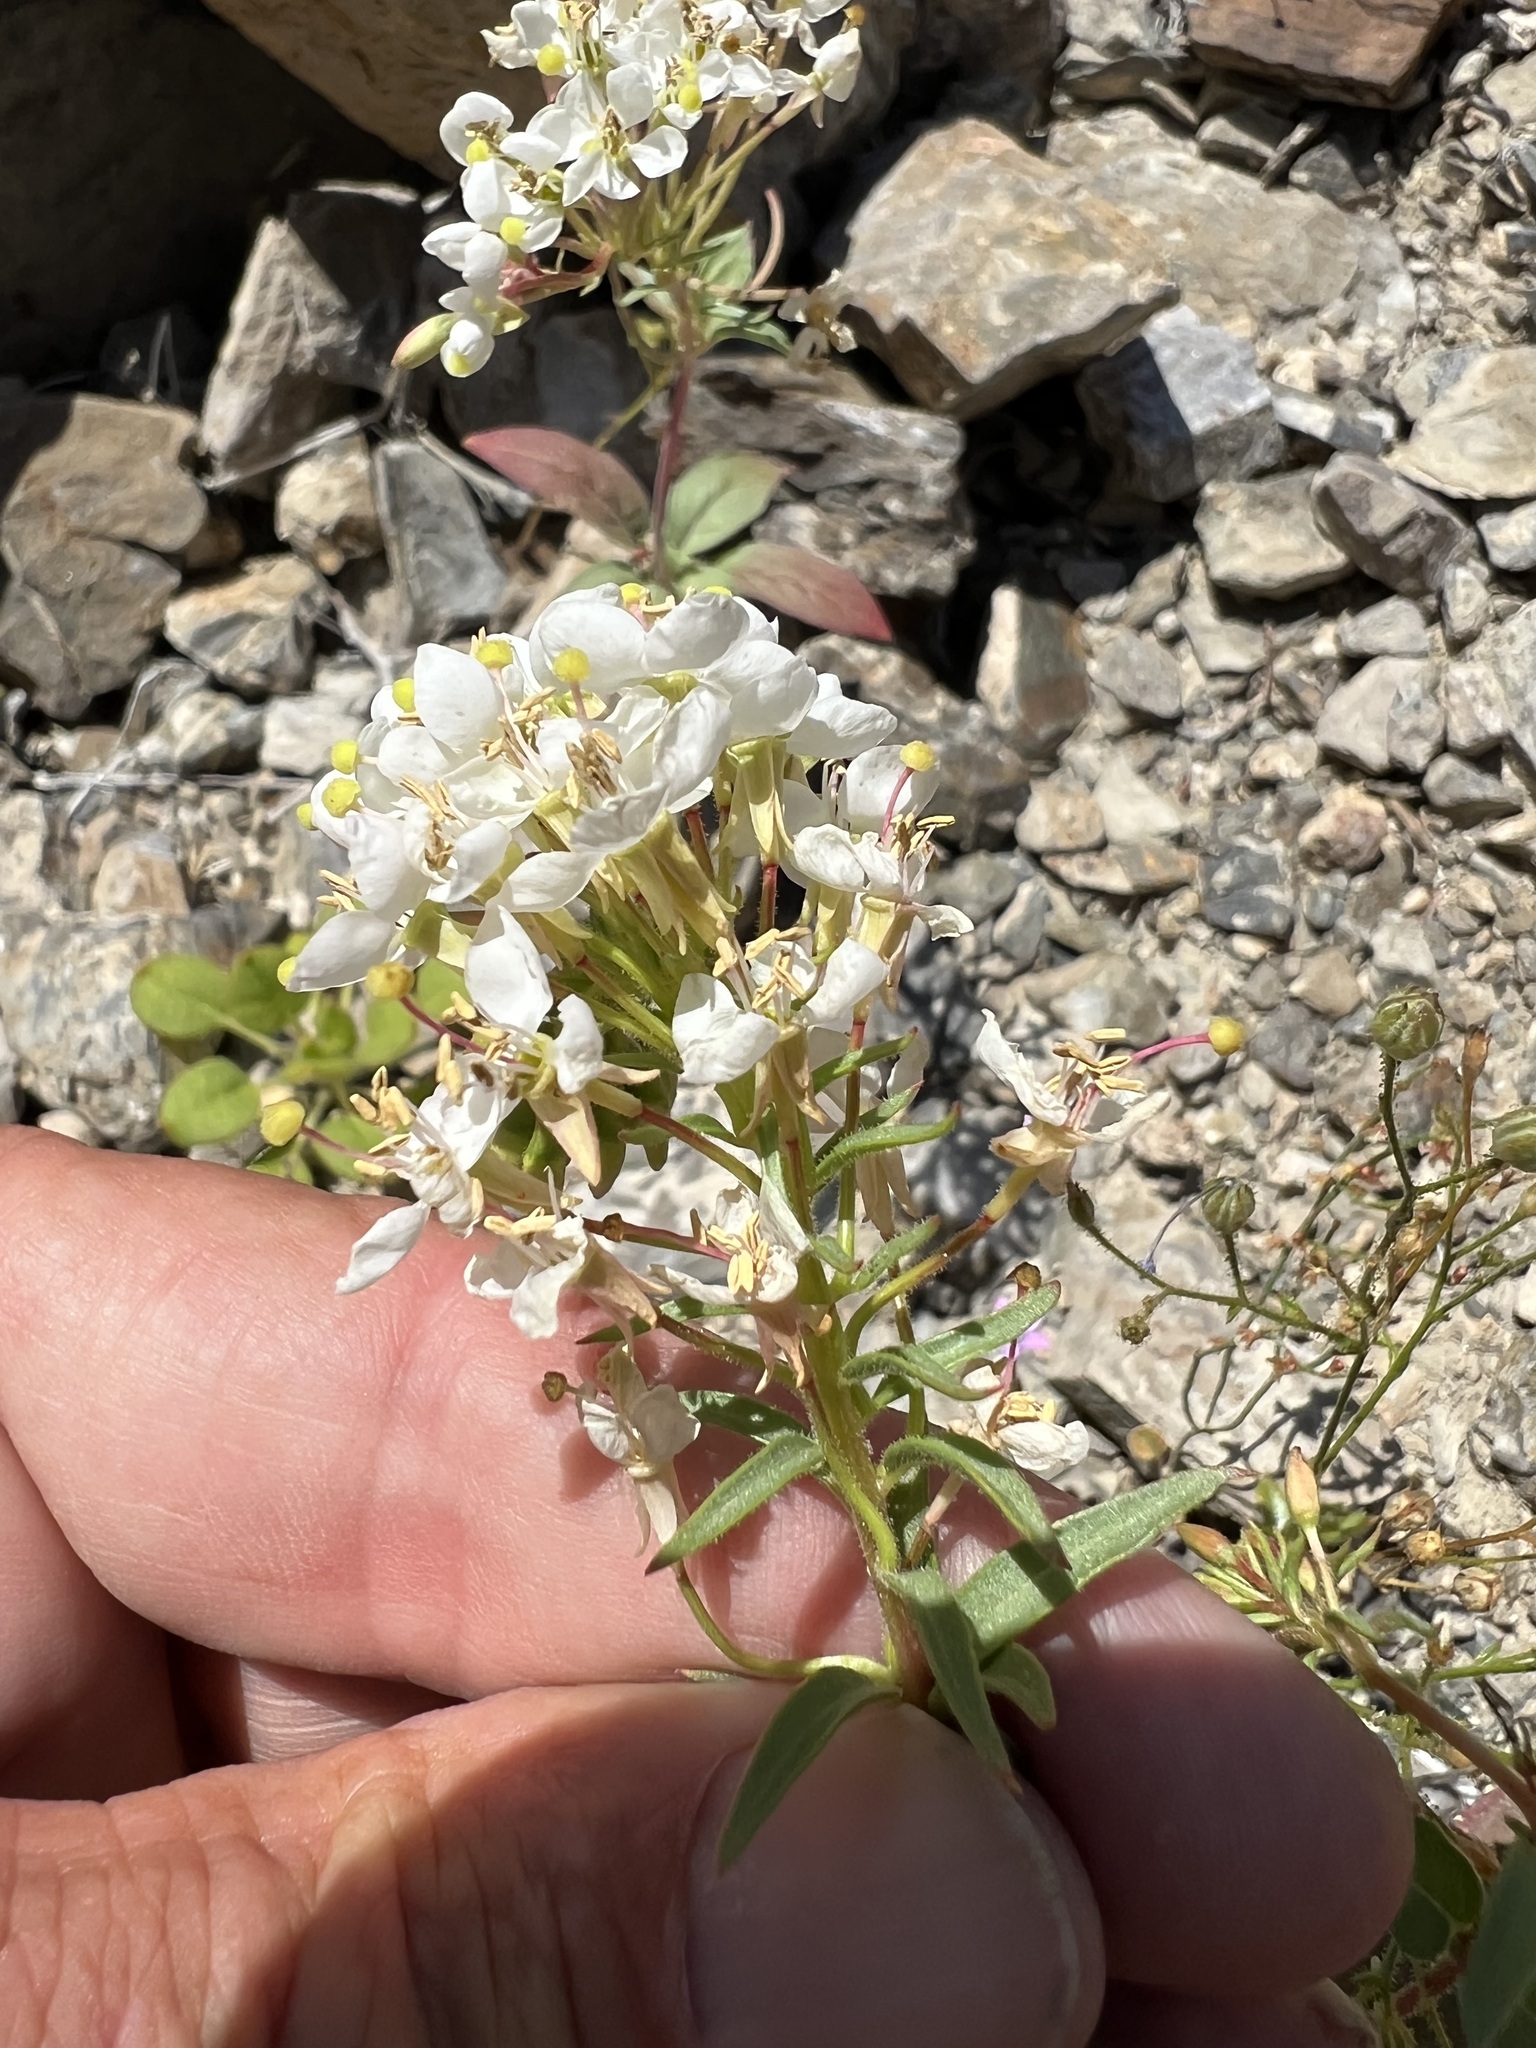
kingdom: Plantae
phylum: Tracheophyta
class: Magnoliopsida
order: Myrtales
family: Onagraceae
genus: Eremothera
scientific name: Eremothera boothii
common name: Booth's evening primrose
